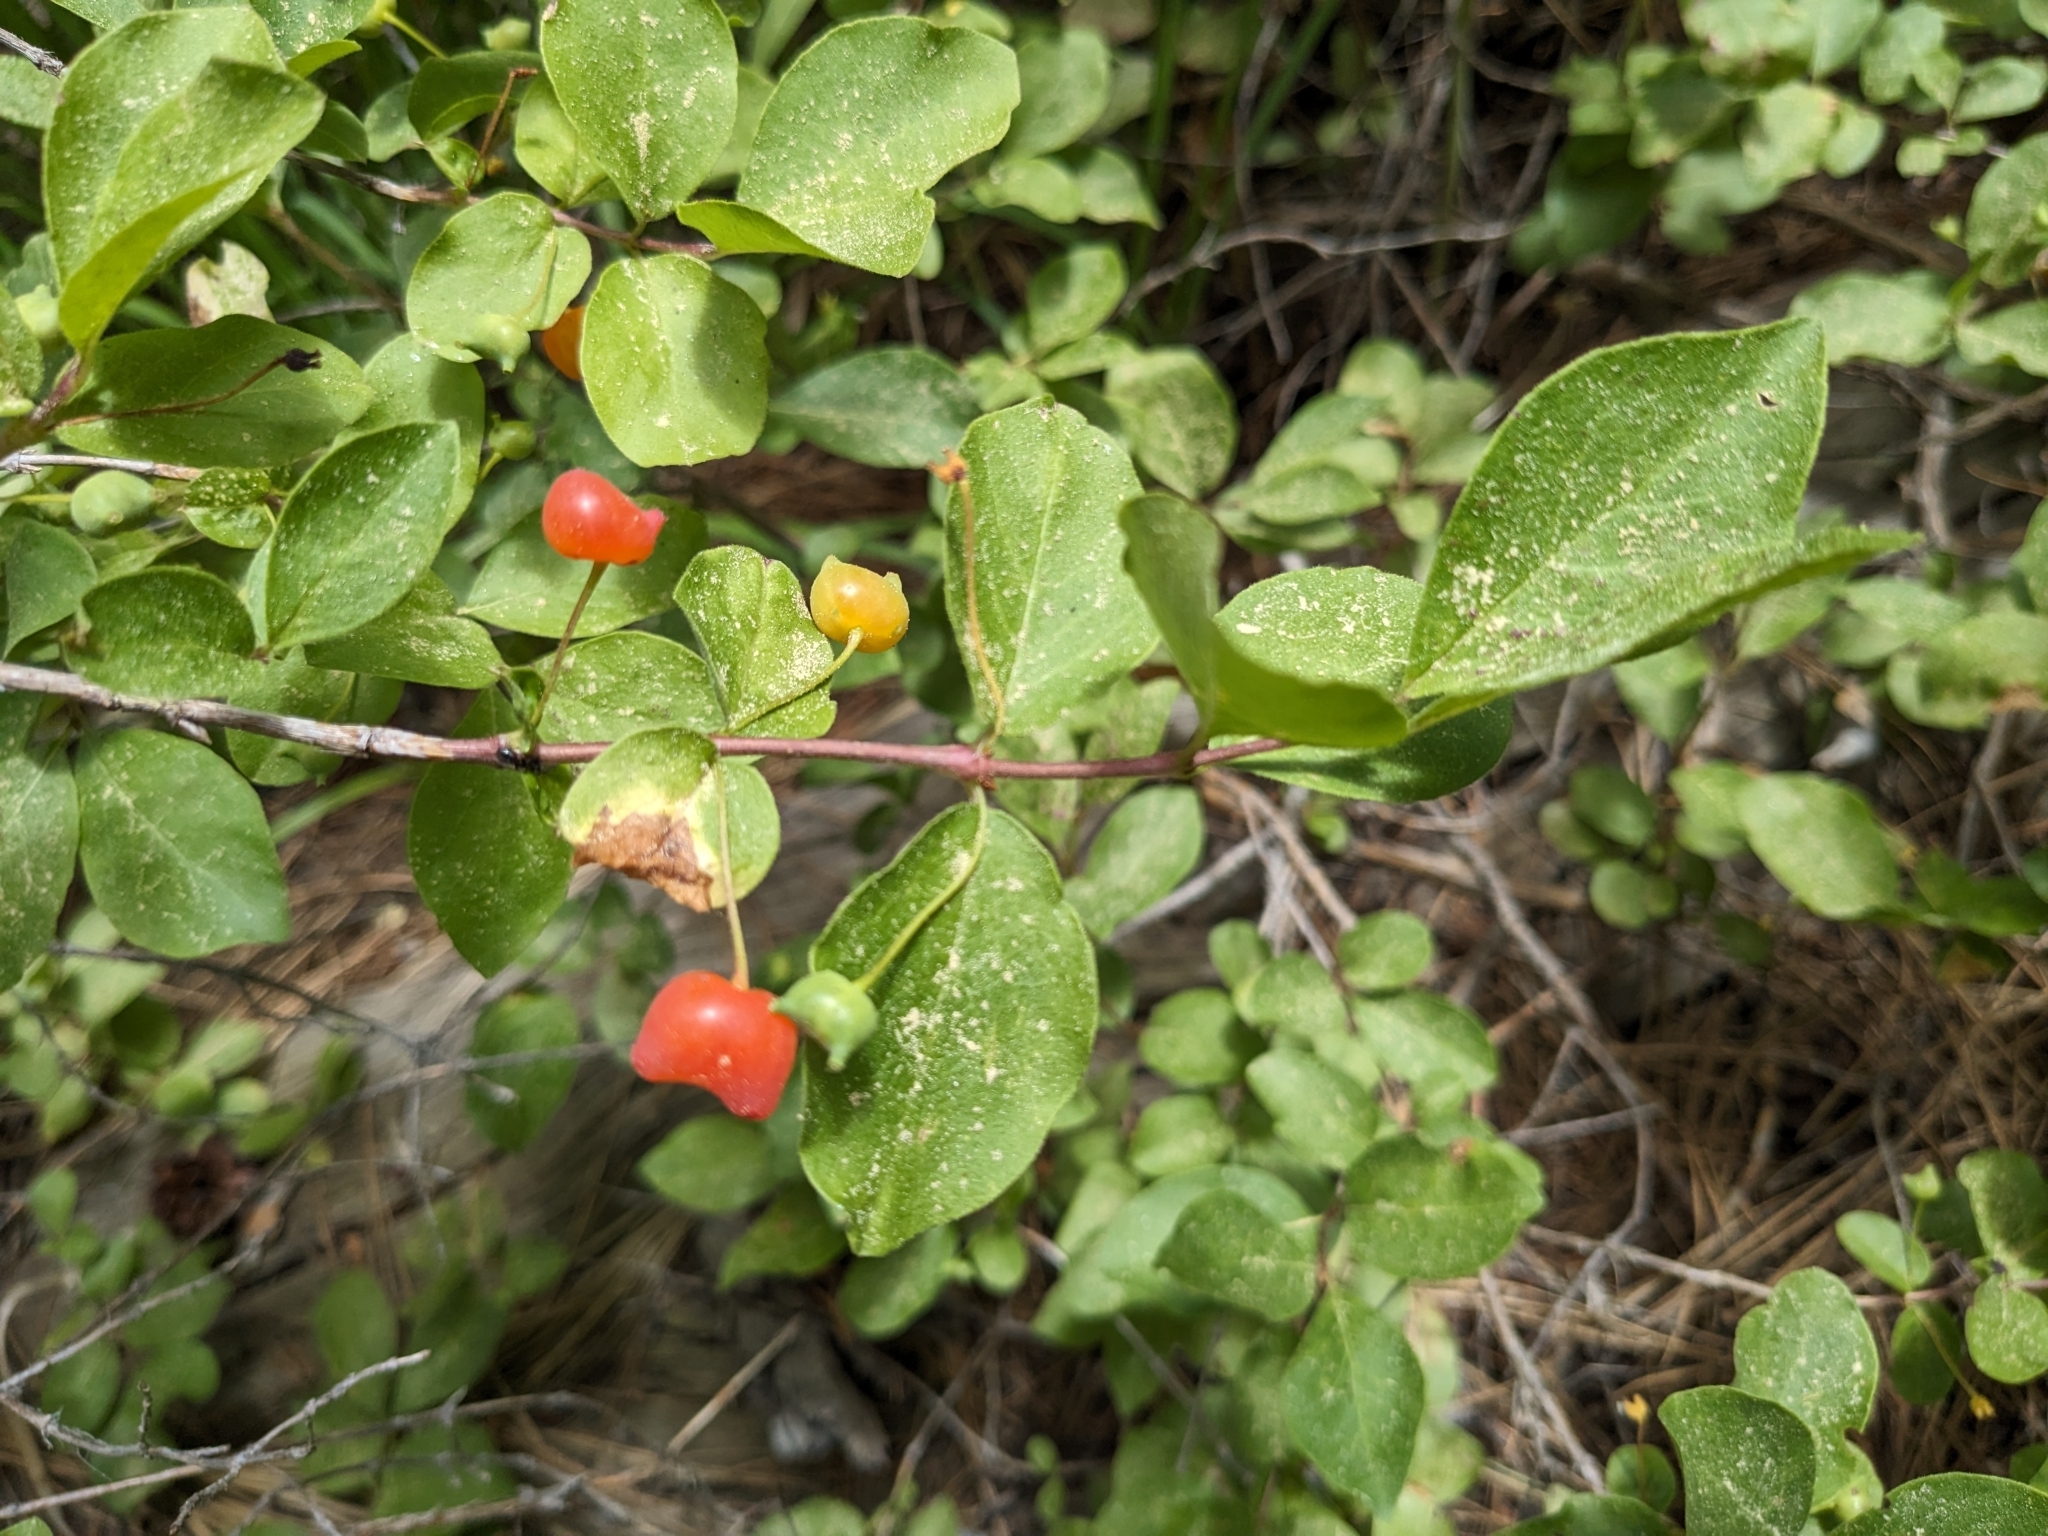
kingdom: Plantae
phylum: Tracheophyta
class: Magnoliopsida
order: Dipsacales
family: Caprifoliaceae
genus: Lonicera
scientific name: Lonicera conjugialis
